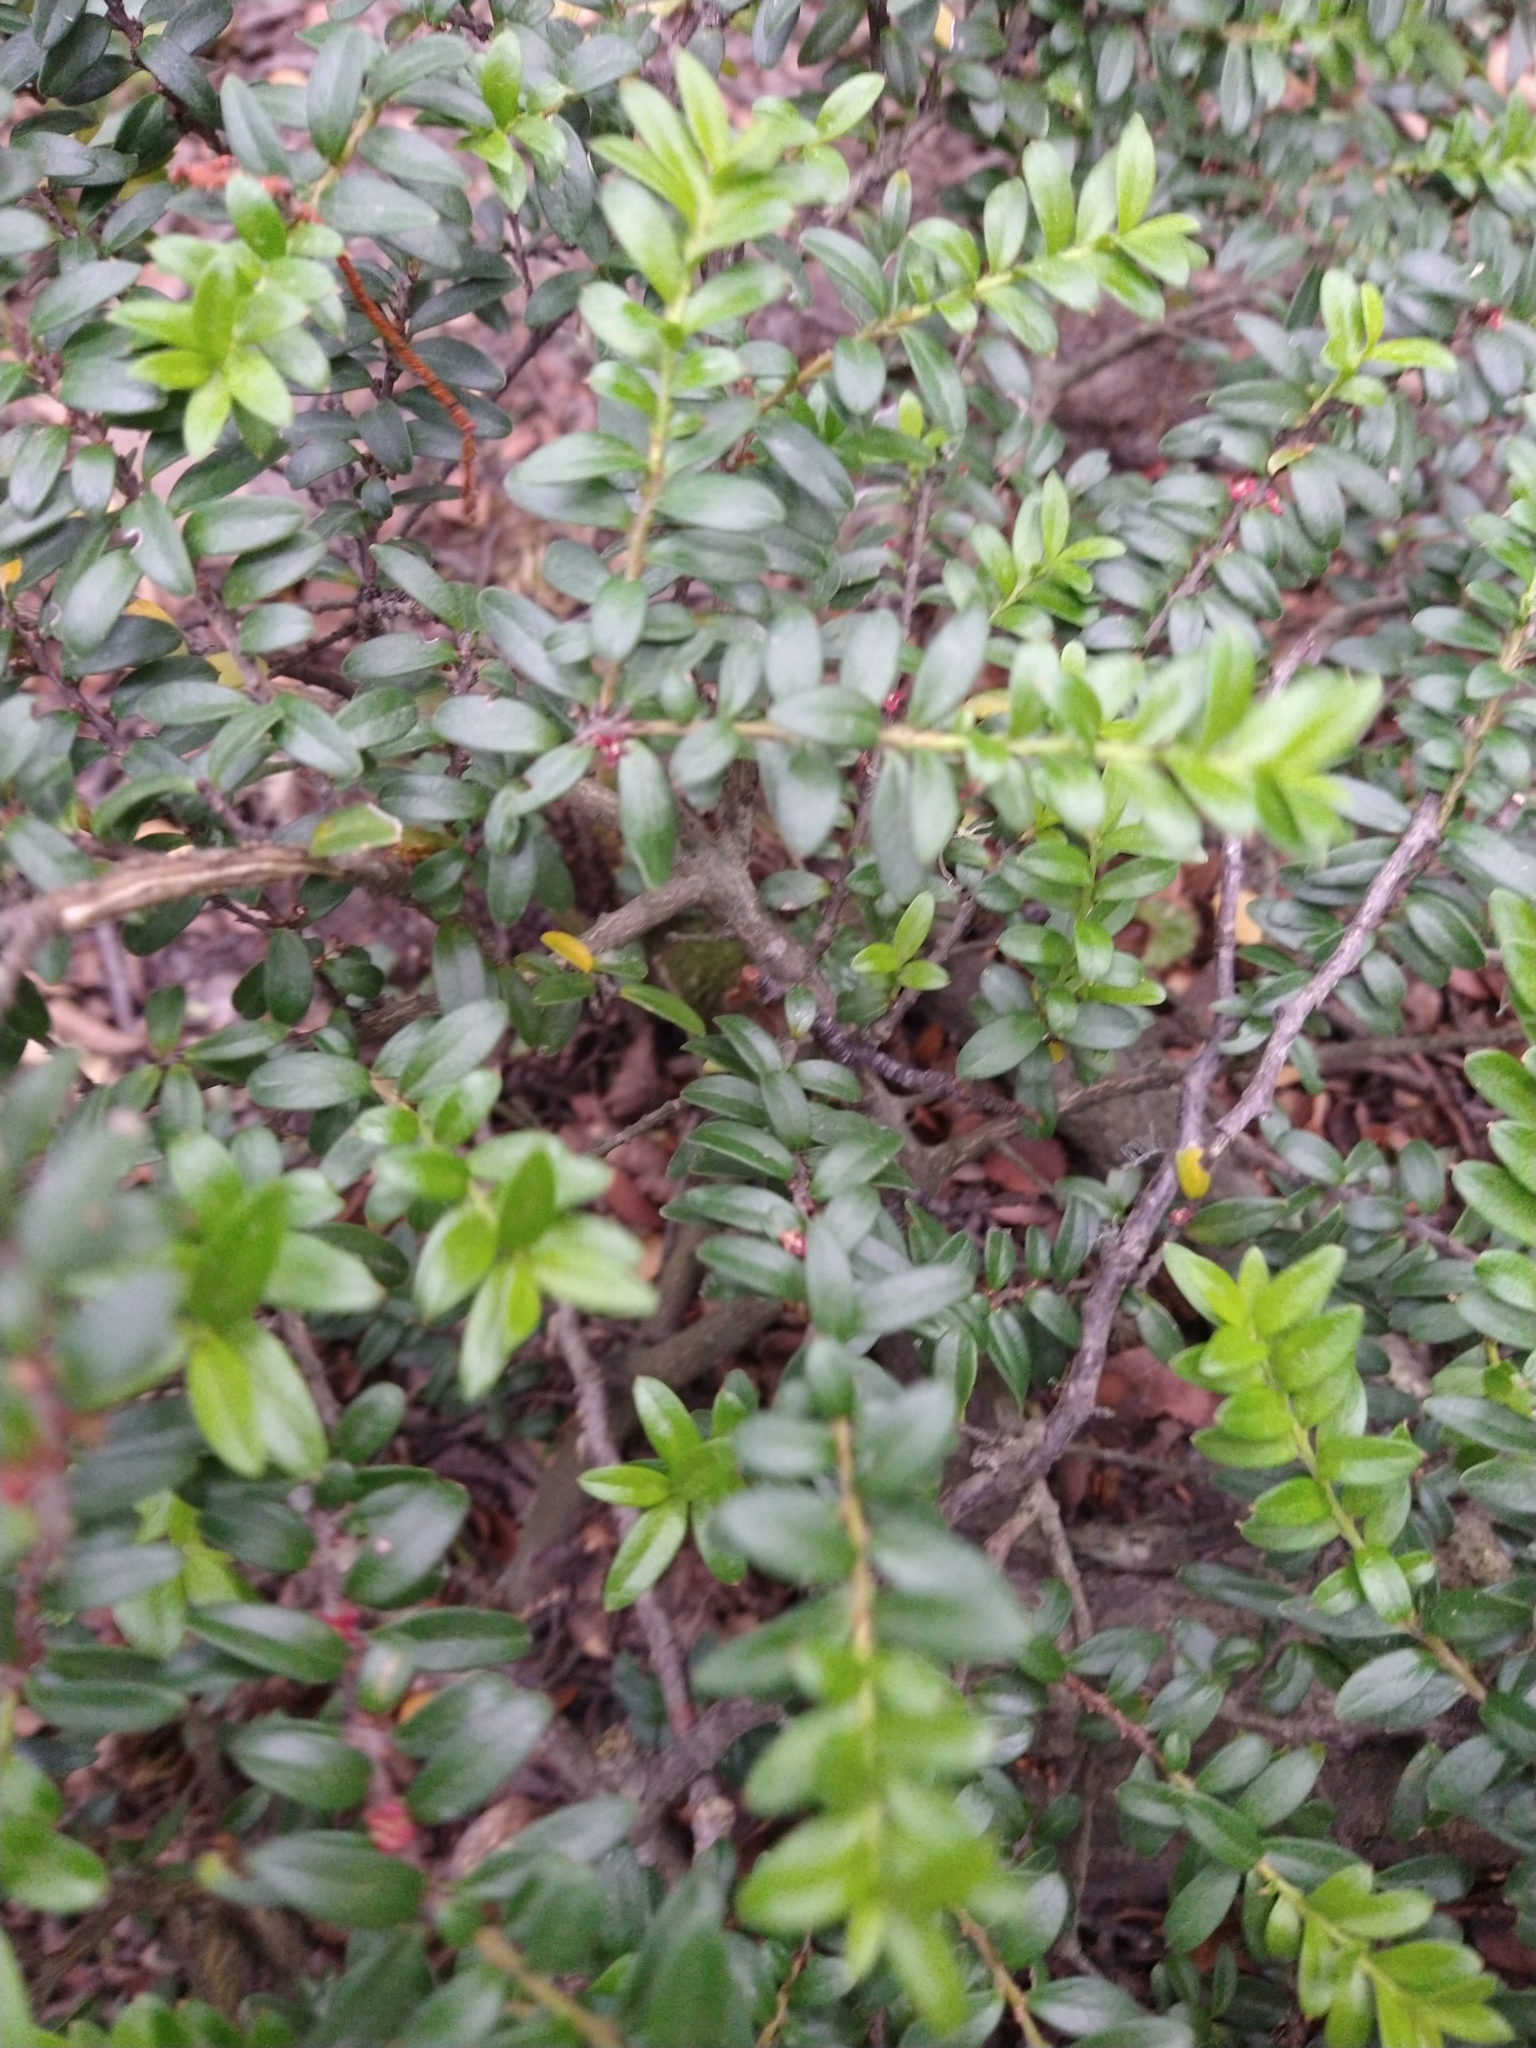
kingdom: Plantae
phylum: Tracheophyta
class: Magnoliopsida
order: Celastrales
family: Celastraceae
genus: Maytenus
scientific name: Maytenus disticha
